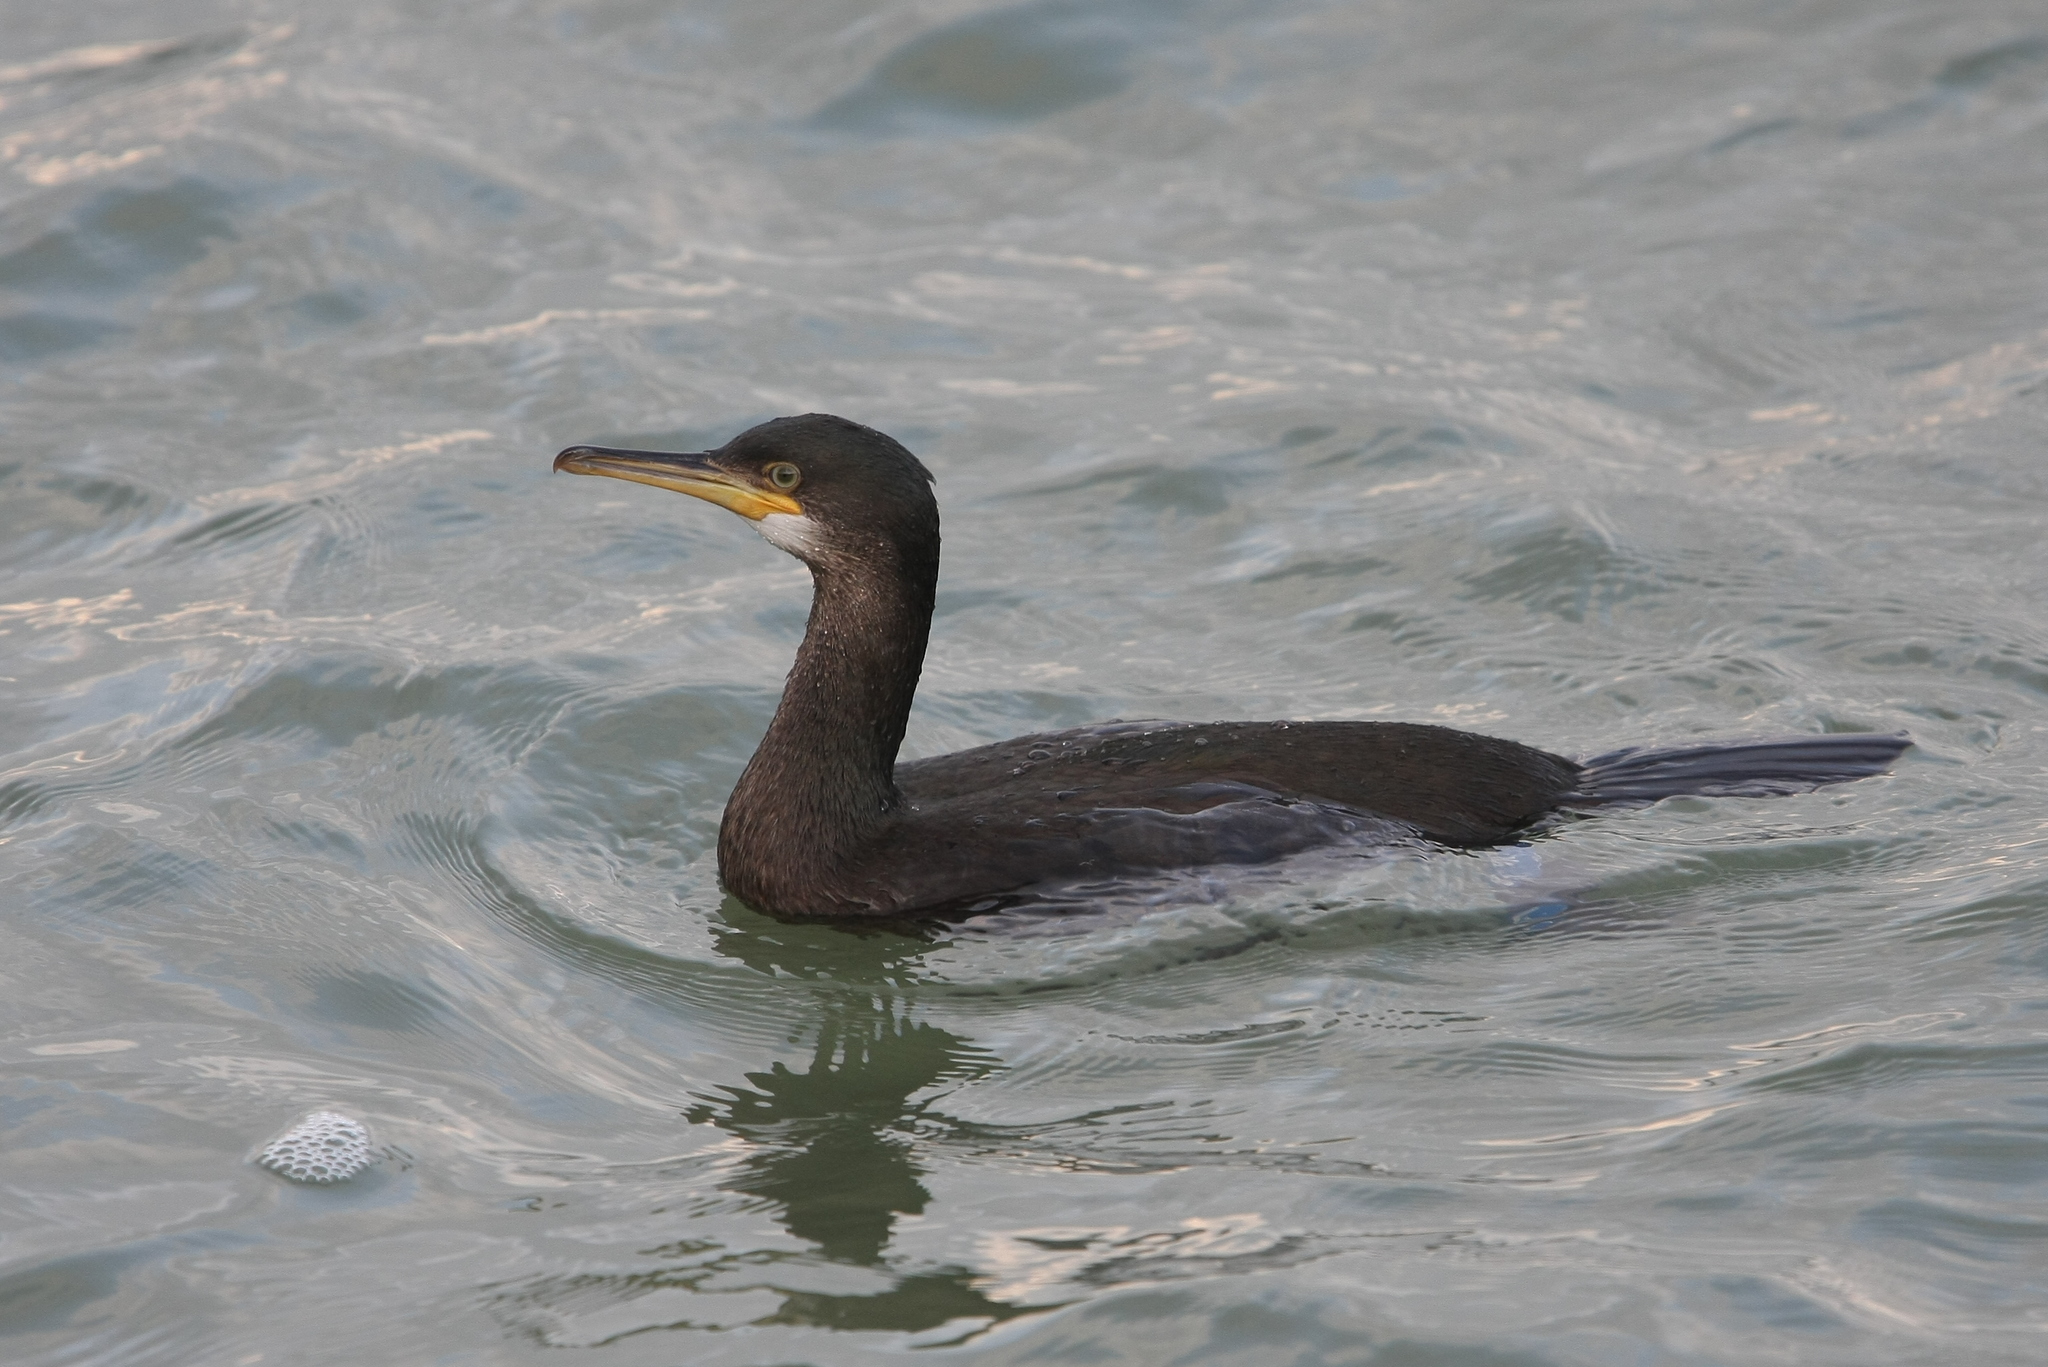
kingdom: Animalia
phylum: Chordata
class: Aves
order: Suliformes
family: Phalacrocoracidae
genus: Phalacrocorax
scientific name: Phalacrocorax aristotelis
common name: European shag
